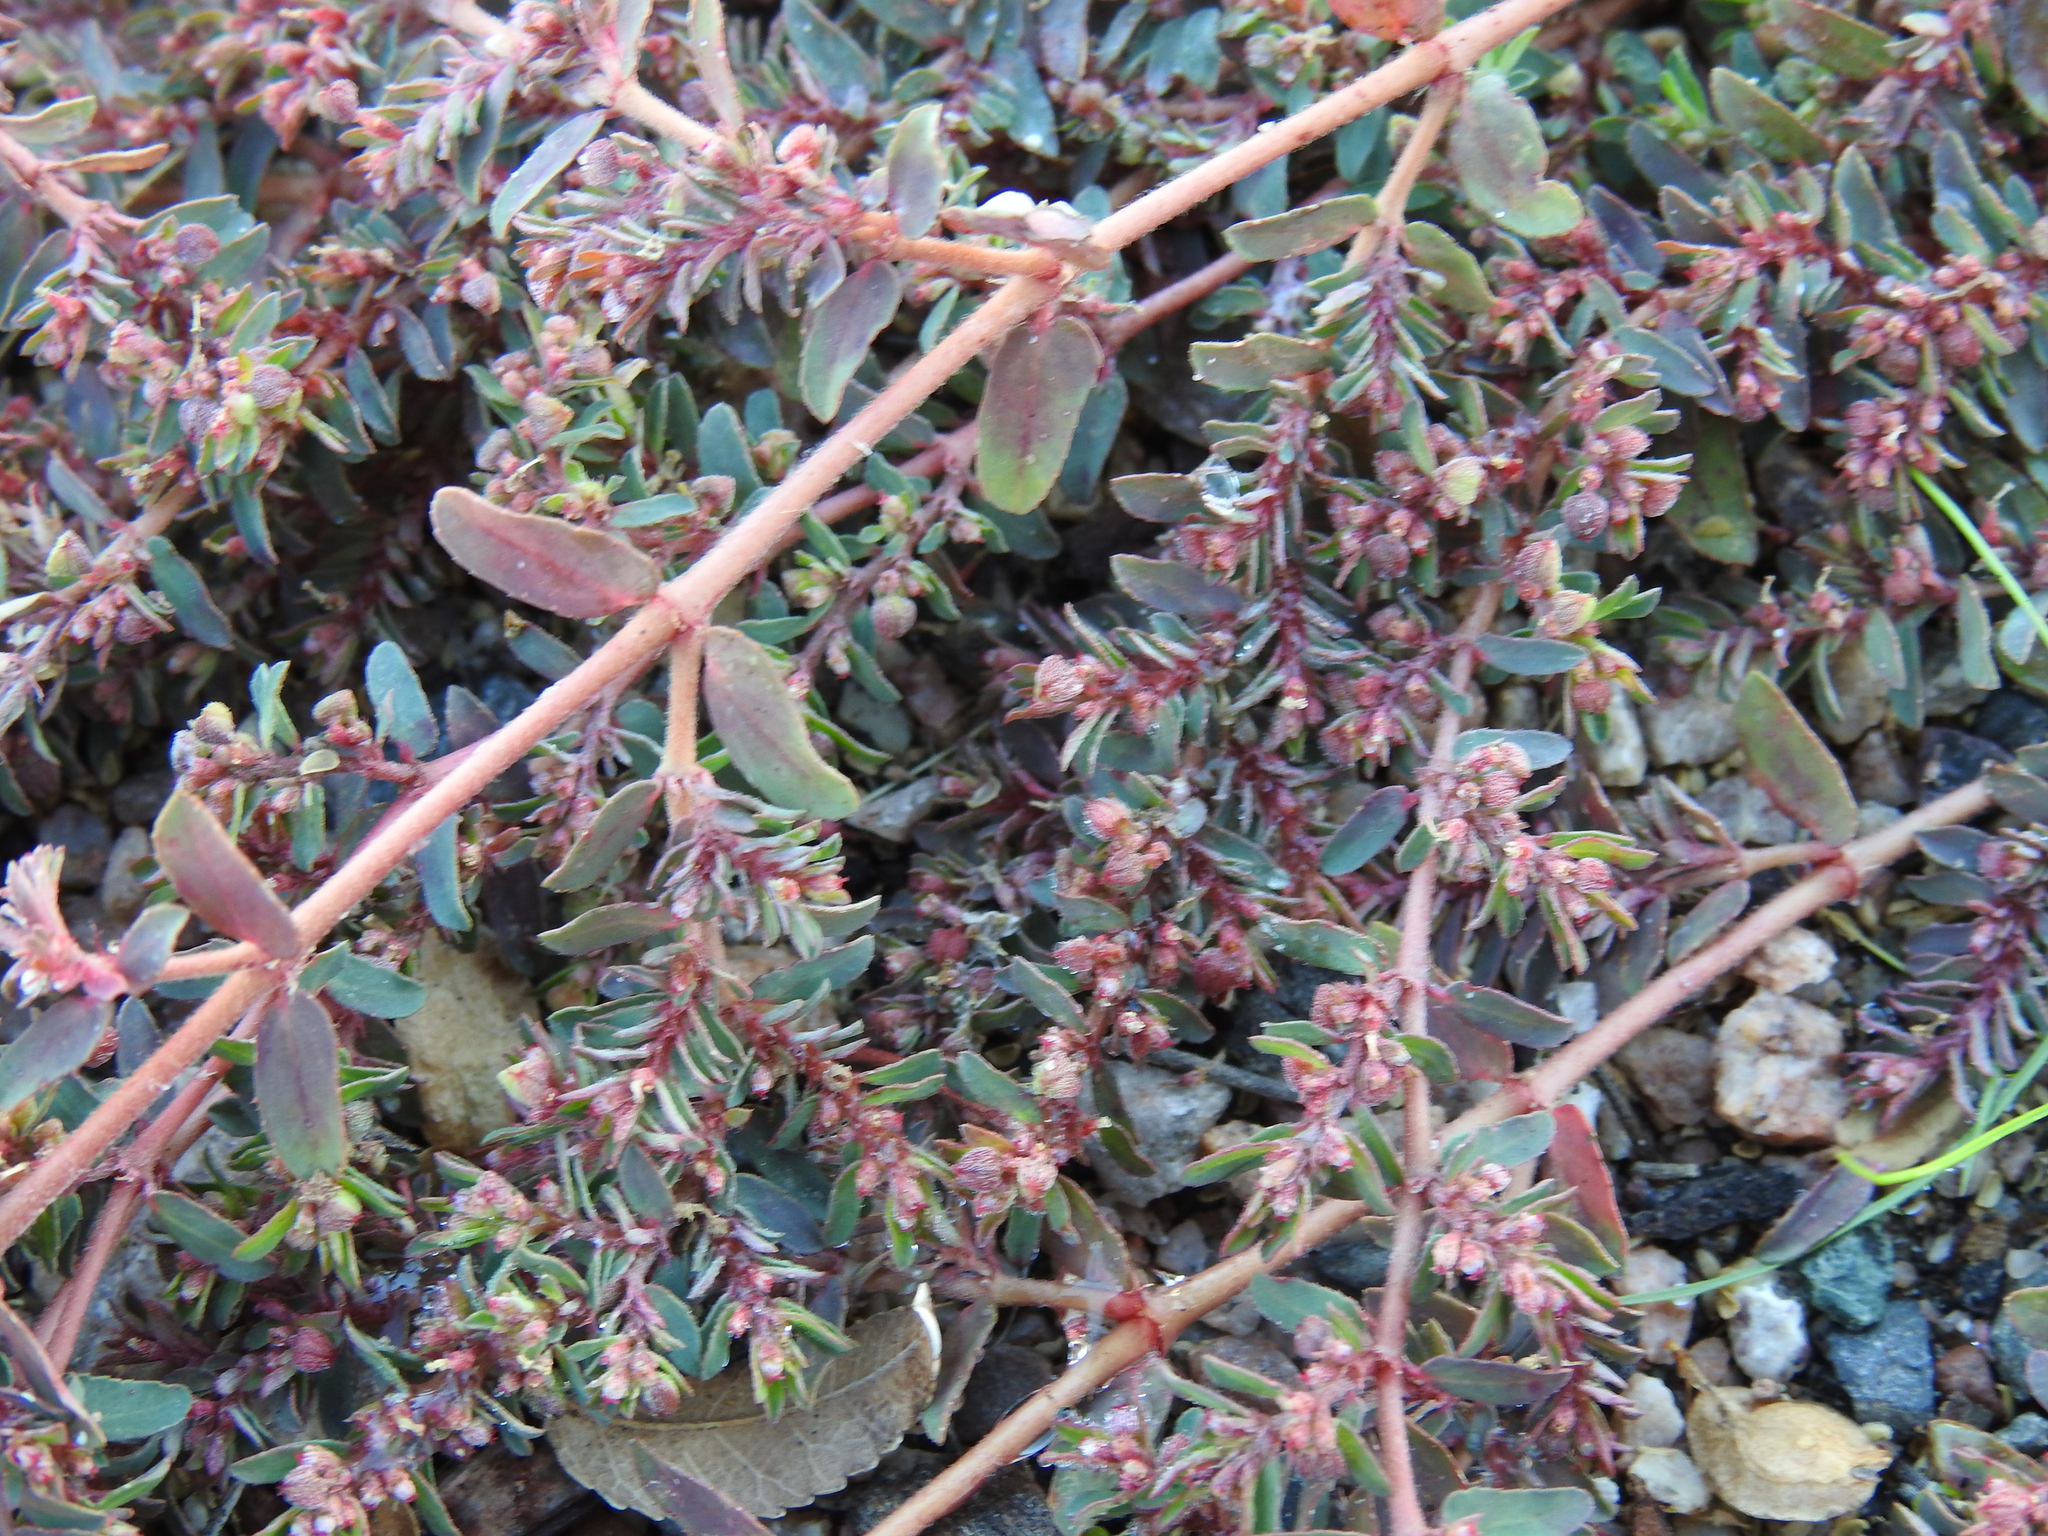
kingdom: Plantae
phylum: Tracheophyta
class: Magnoliopsida
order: Malpighiales
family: Euphorbiaceae
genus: Euphorbia
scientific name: Euphorbia maculata
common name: Spotted spurge
